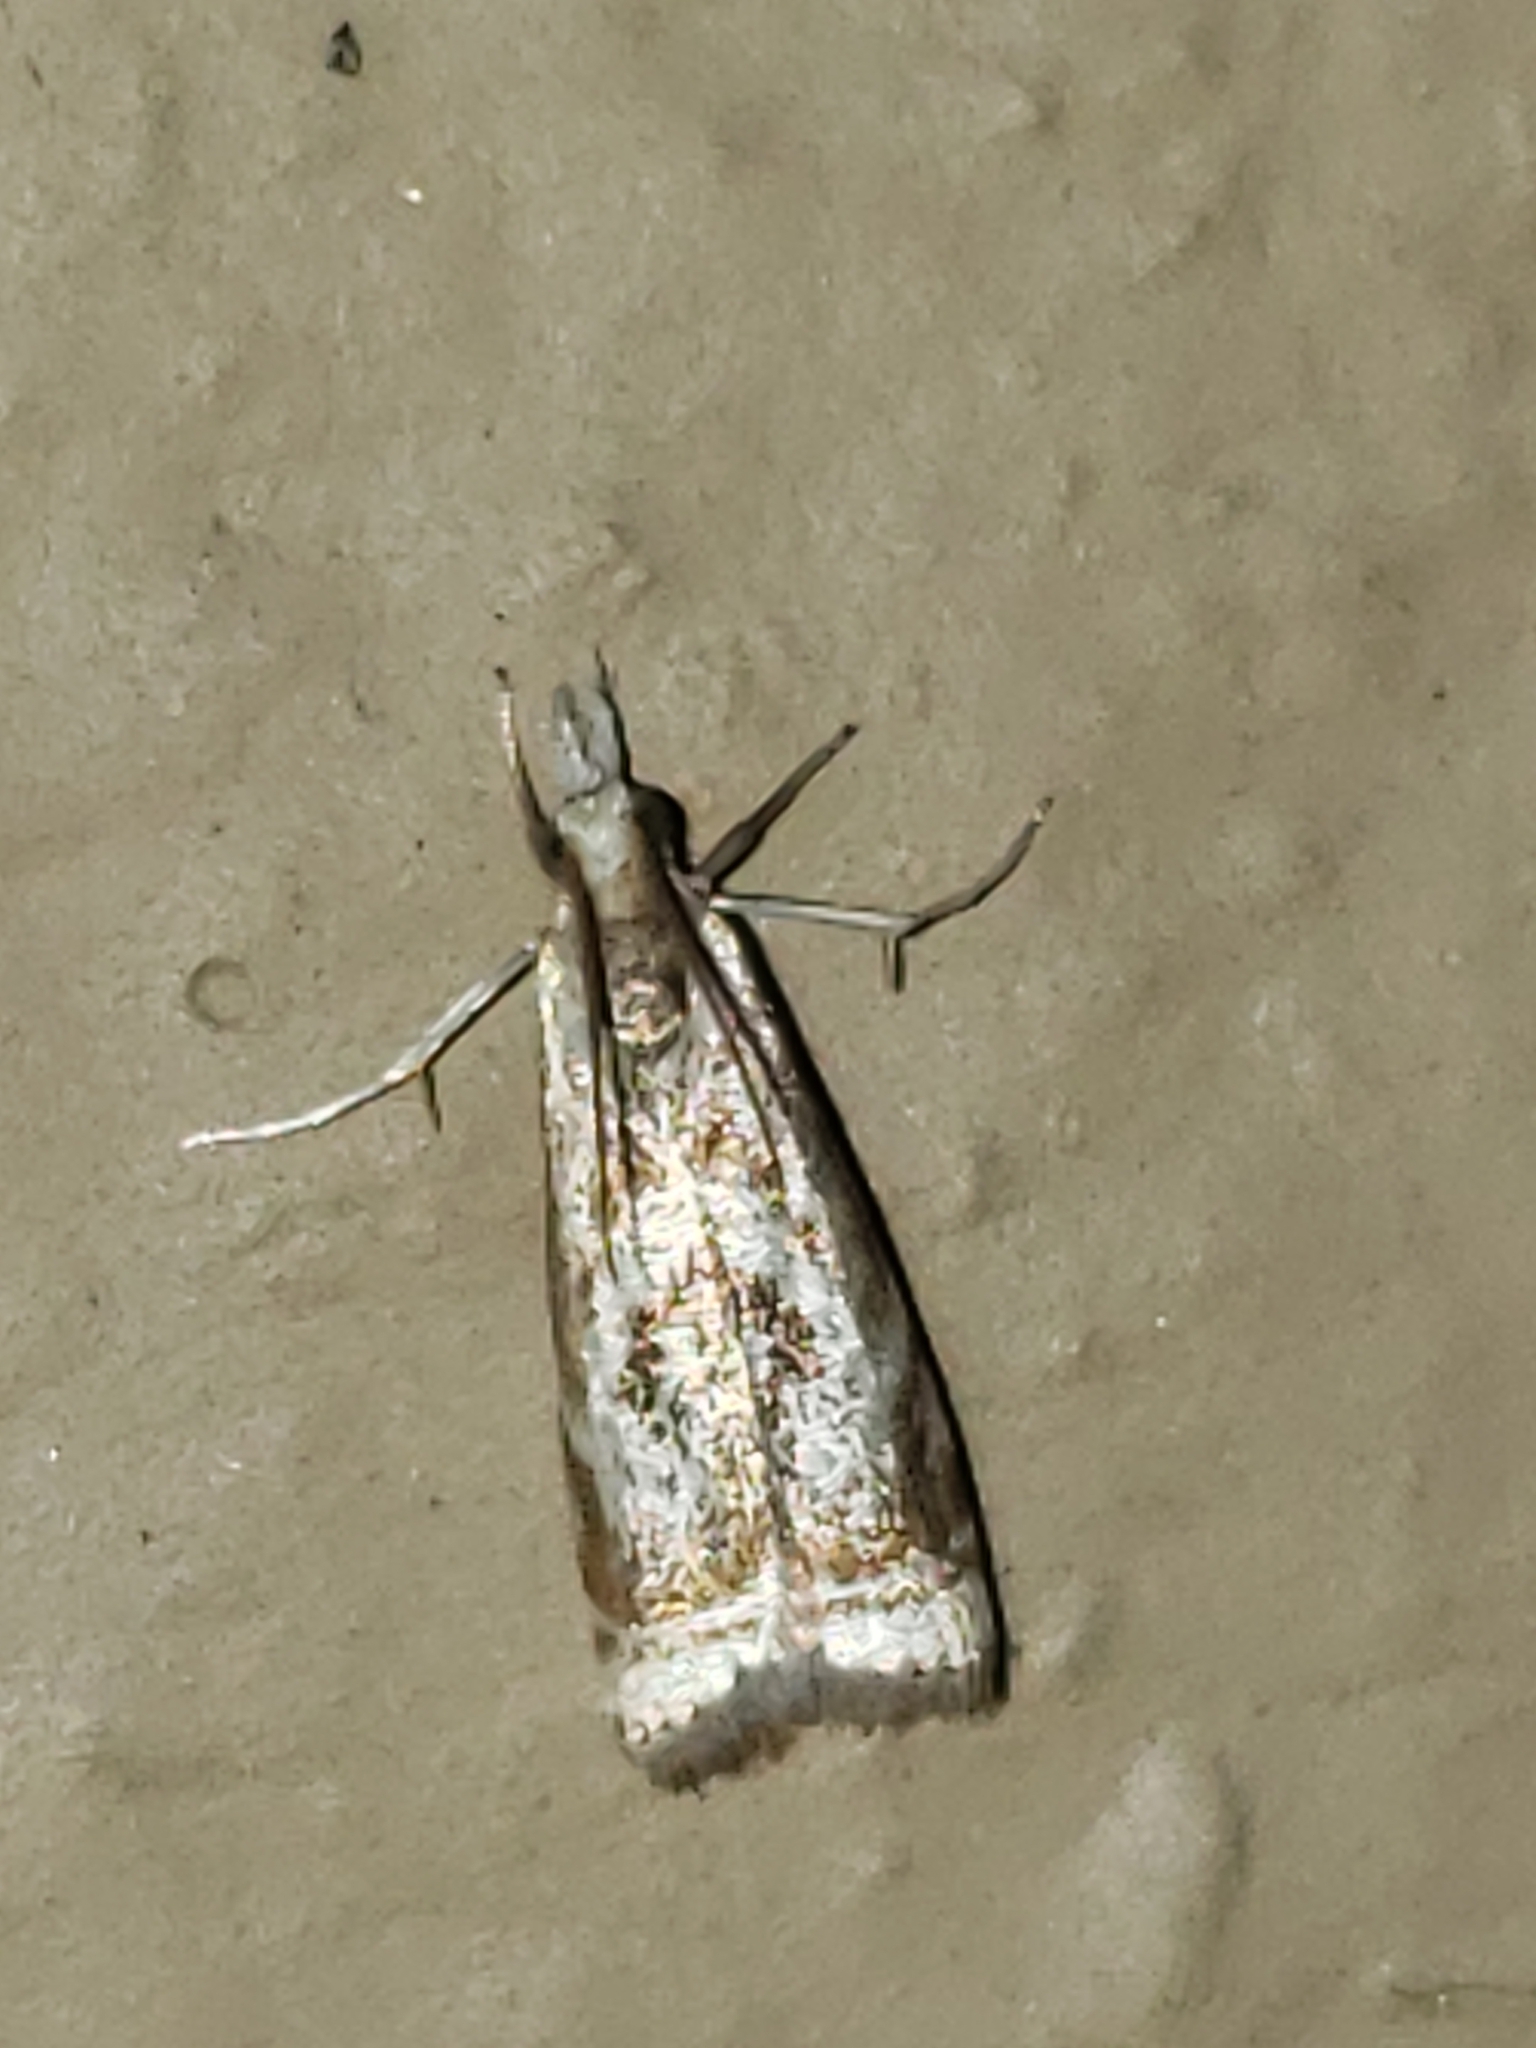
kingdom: Animalia
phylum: Arthropoda
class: Insecta
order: Lepidoptera
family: Crambidae
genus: Microcrambus
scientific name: Microcrambus elegans
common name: Elegant grass-veneer
